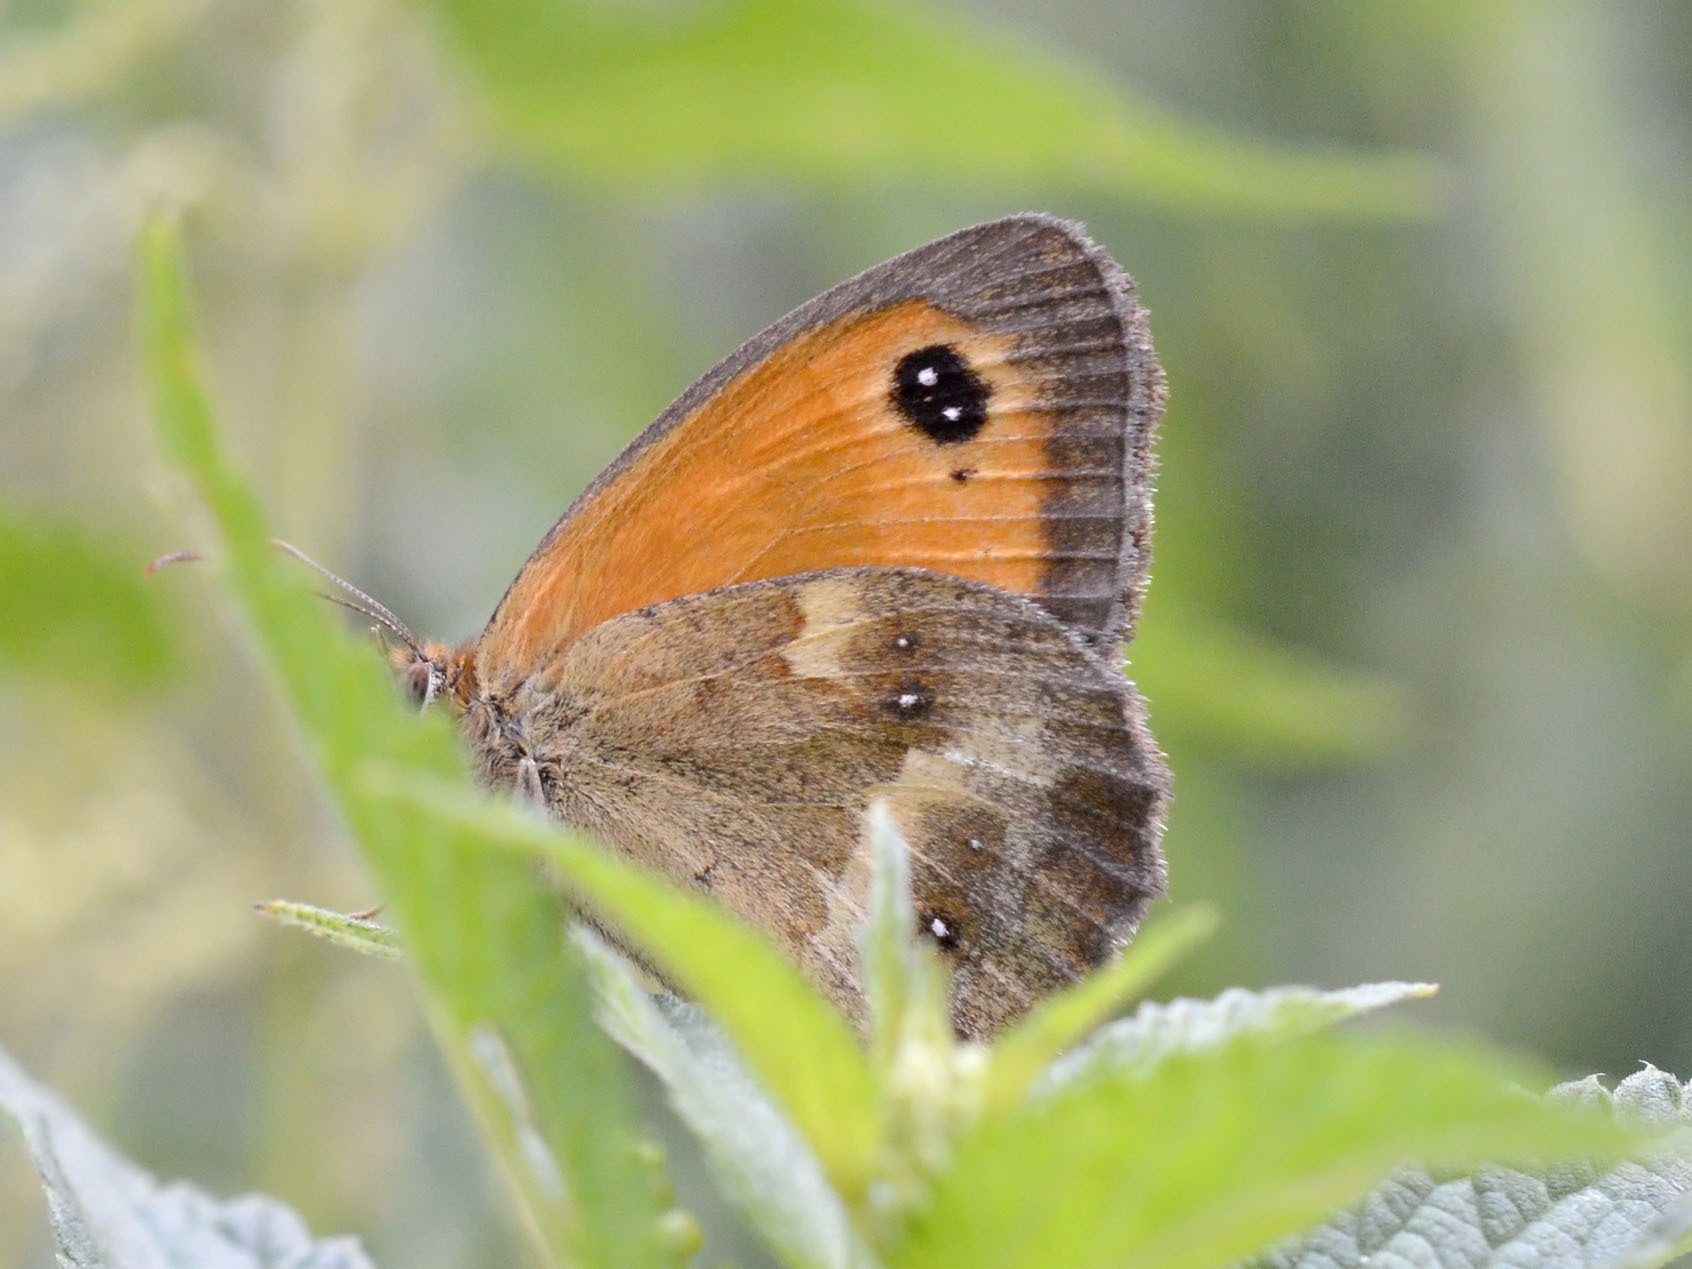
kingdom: Animalia
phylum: Arthropoda
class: Insecta
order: Lepidoptera
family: Nymphalidae
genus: Pyronia
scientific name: Pyronia tithonus
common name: Gatekeeper
